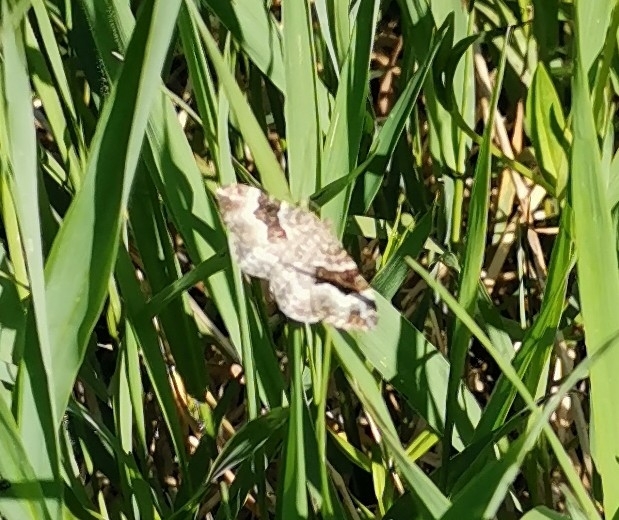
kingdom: Animalia
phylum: Arthropoda
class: Insecta
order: Lepidoptera
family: Geometridae
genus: Epirrhoe
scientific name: Epirrhoe alternata
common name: Common carpet
